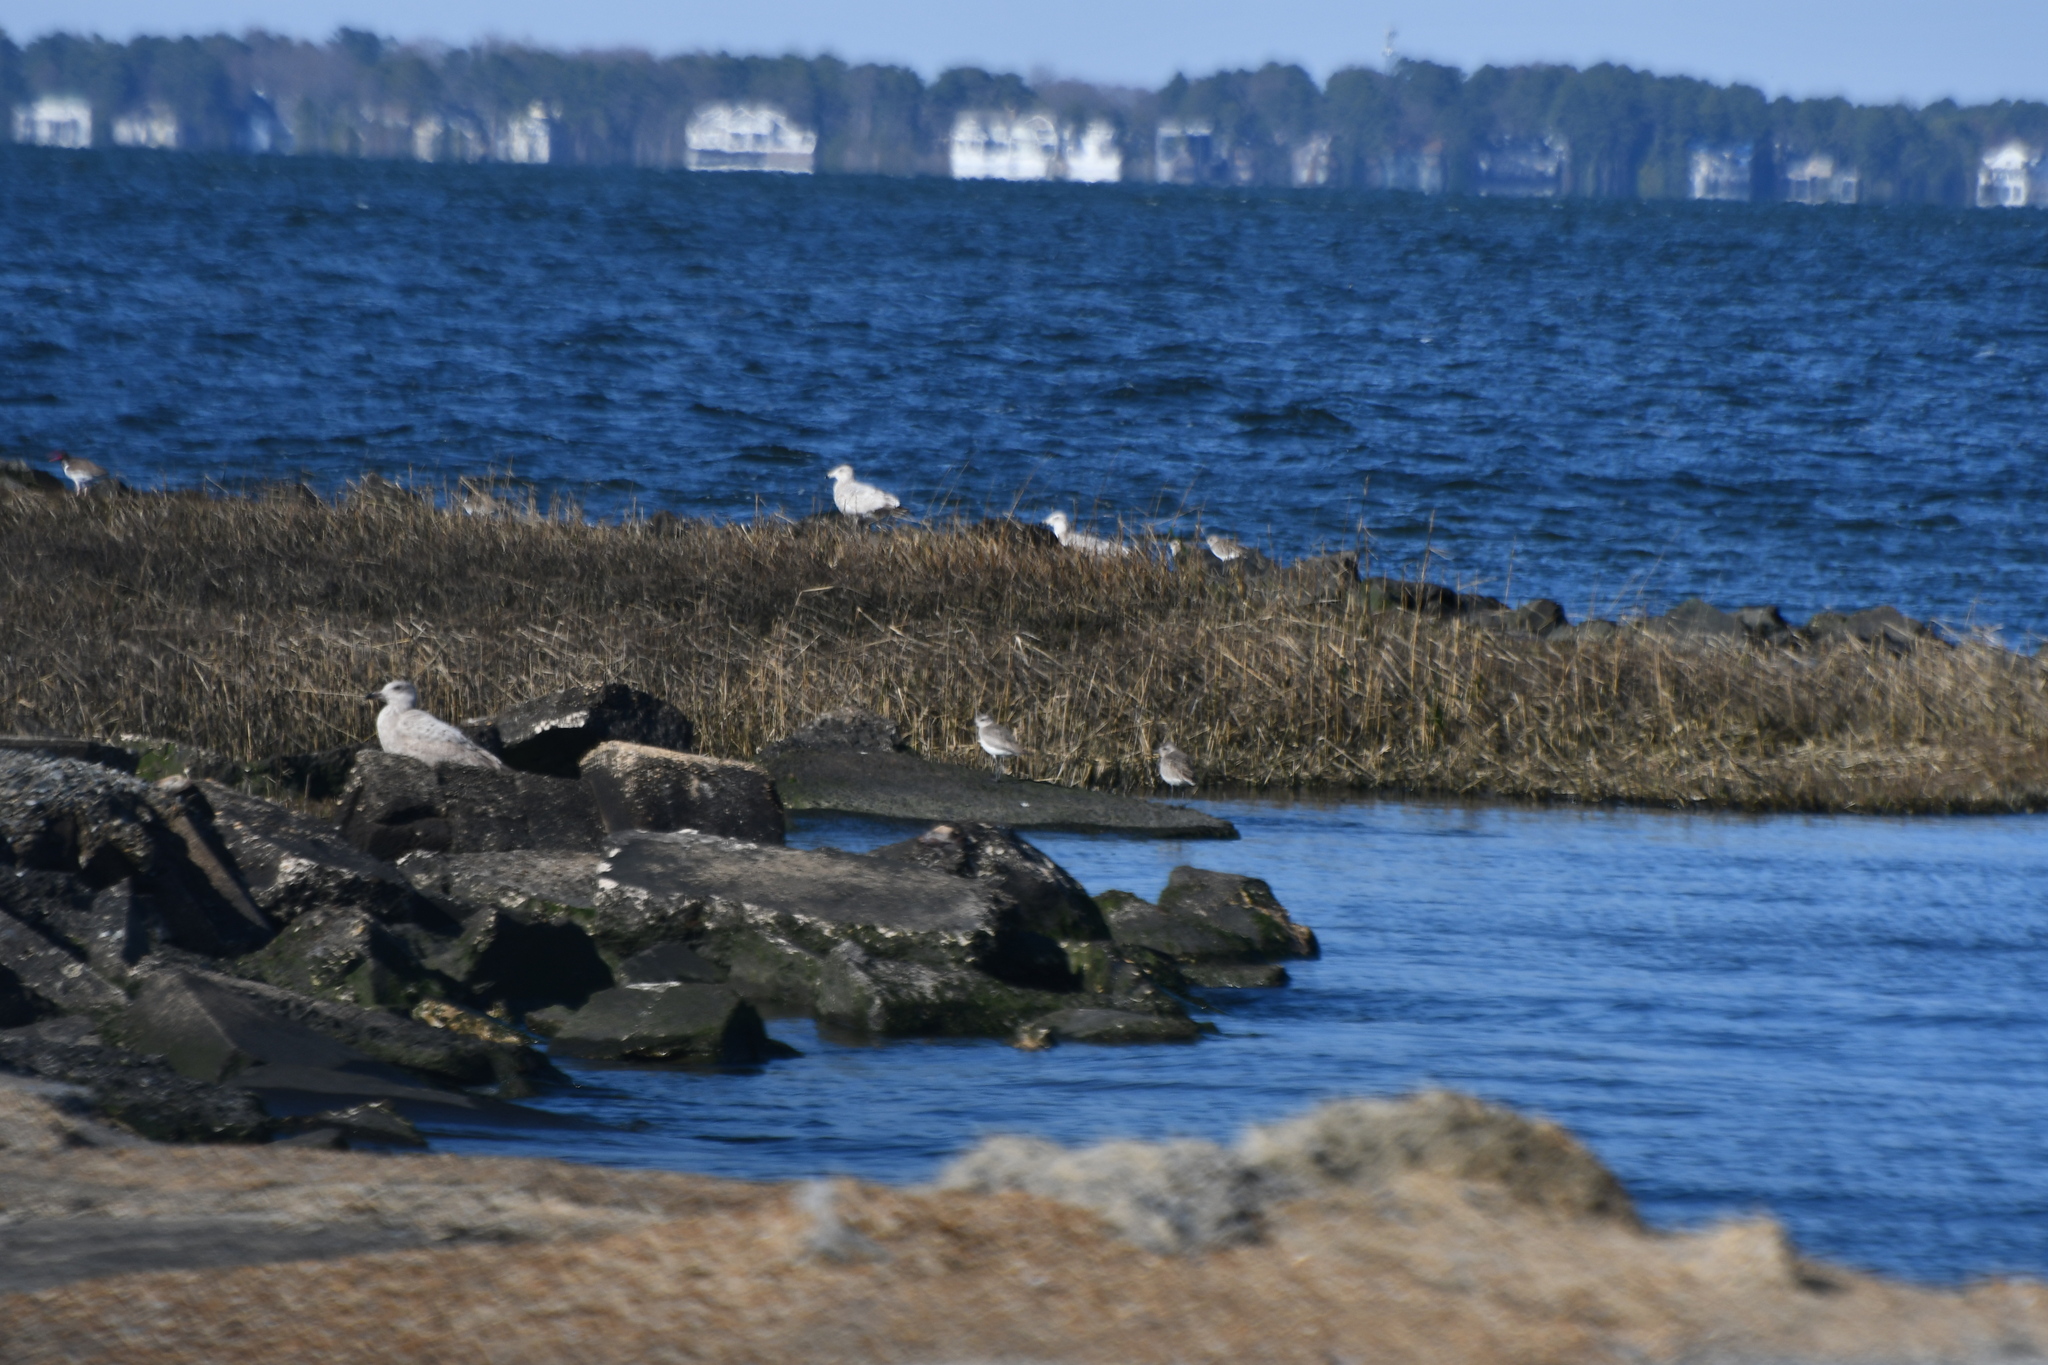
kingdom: Animalia
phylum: Chordata
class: Aves
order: Charadriiformes
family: Charadriidae
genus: Pluvialis
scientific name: Pluvialis squatarola
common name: Grey plover
